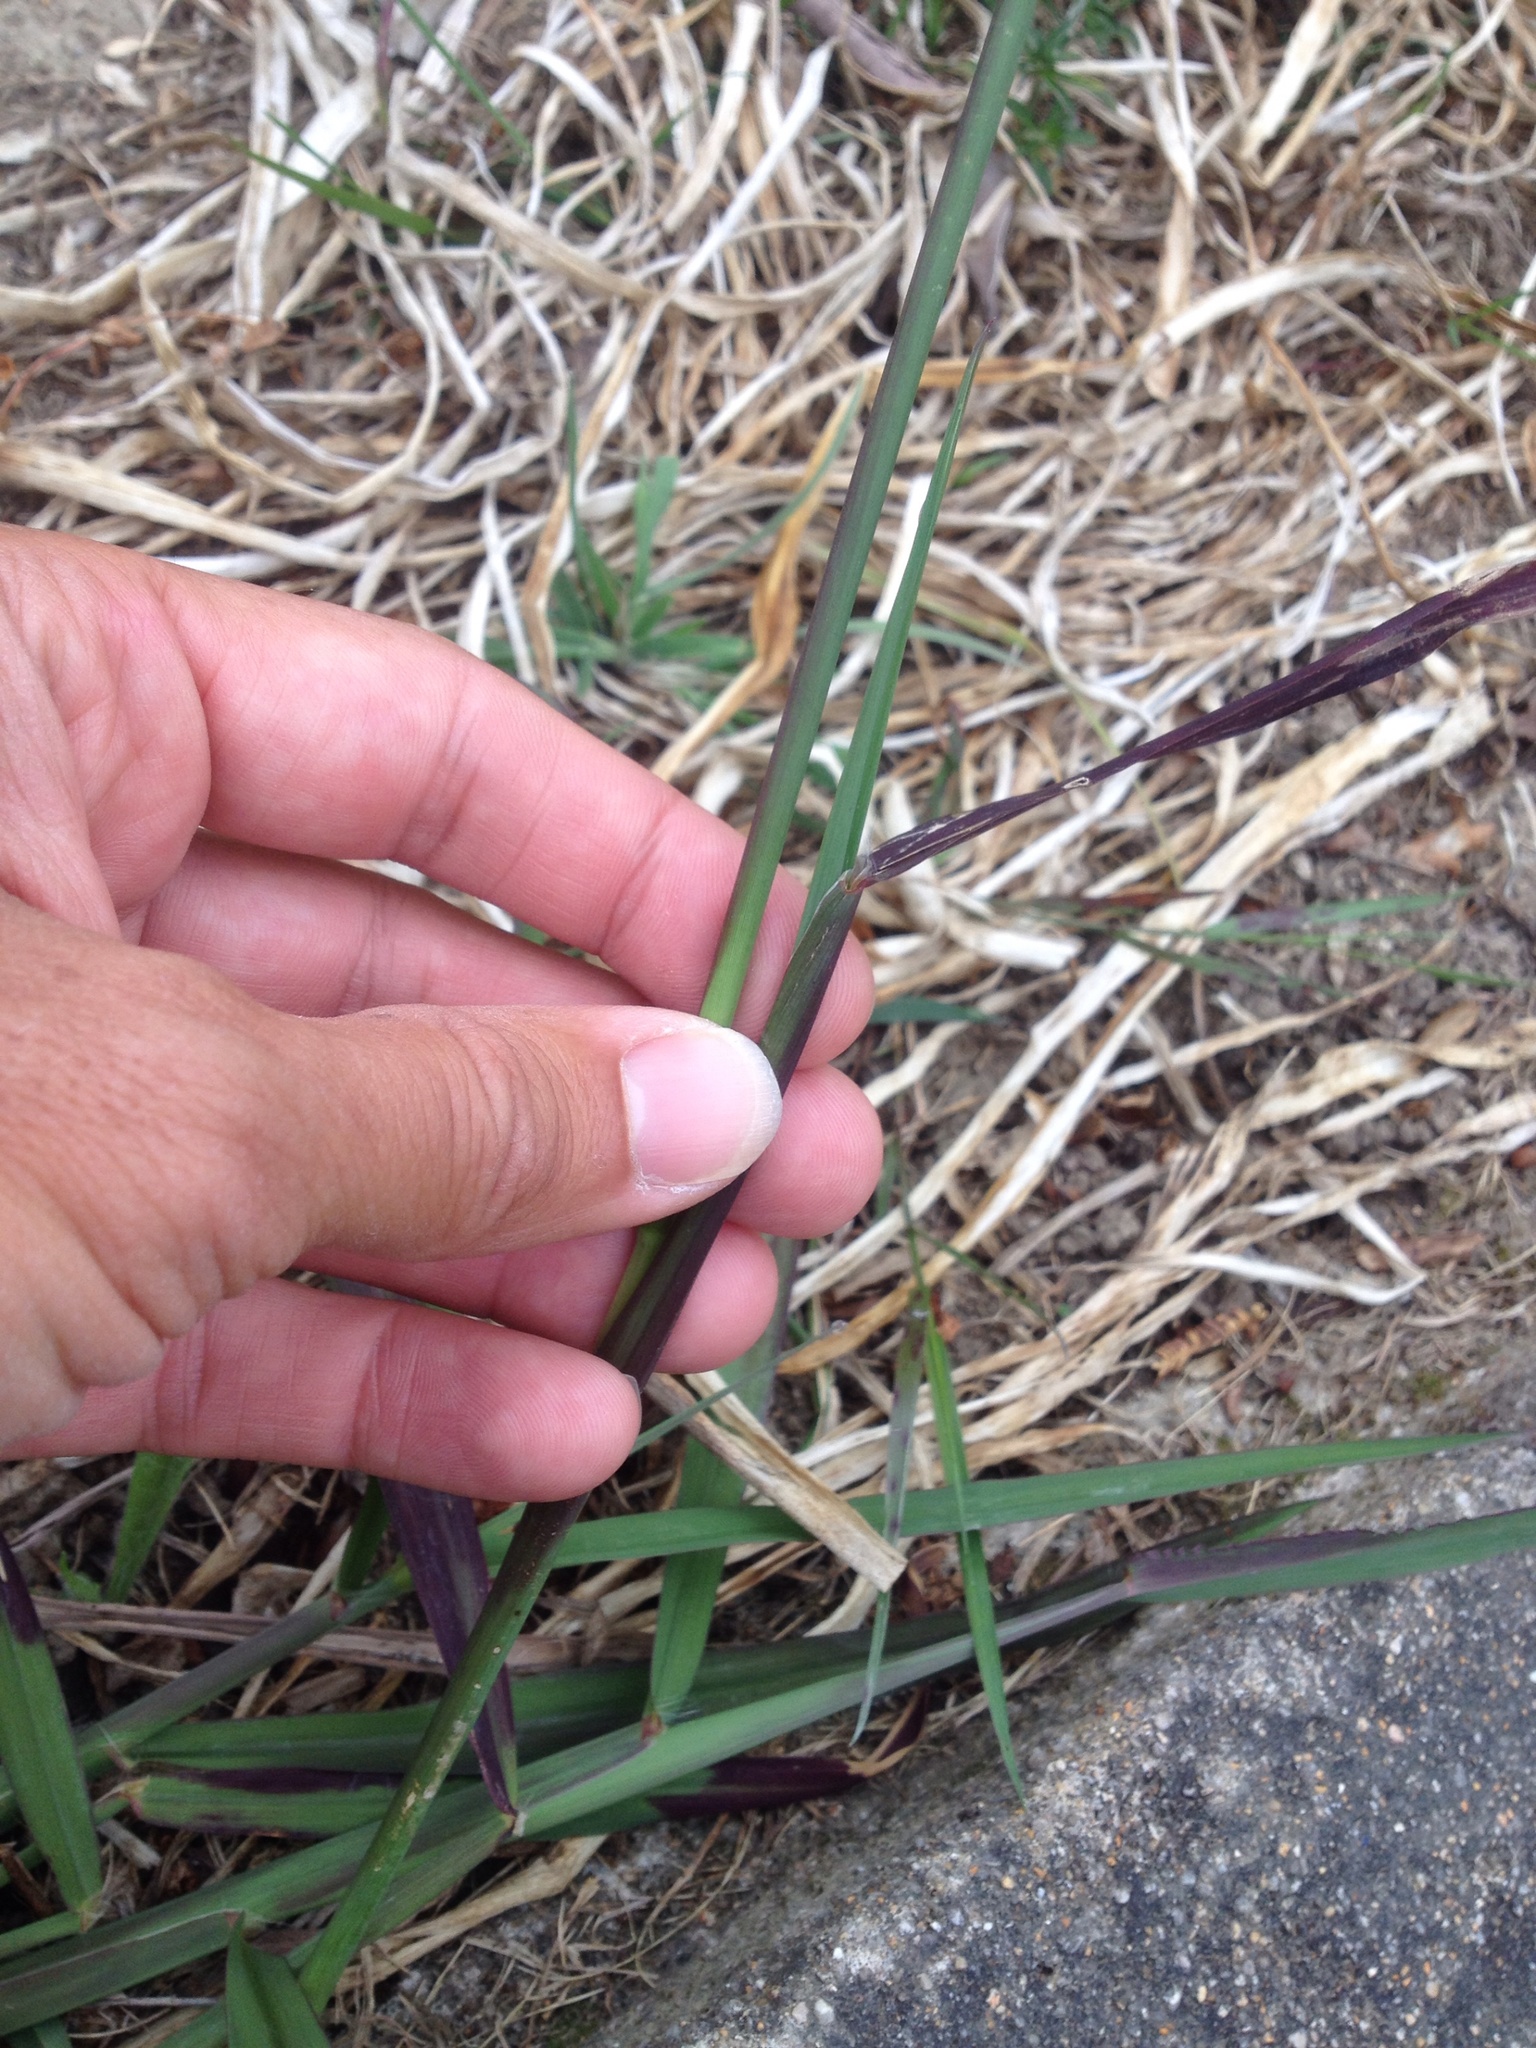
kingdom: Plantae
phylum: Tracheophyta
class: Liliopsida
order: Poales
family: Poaceae
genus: Paspalum
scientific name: Paspalum dilatatum
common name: Dallisgrass
